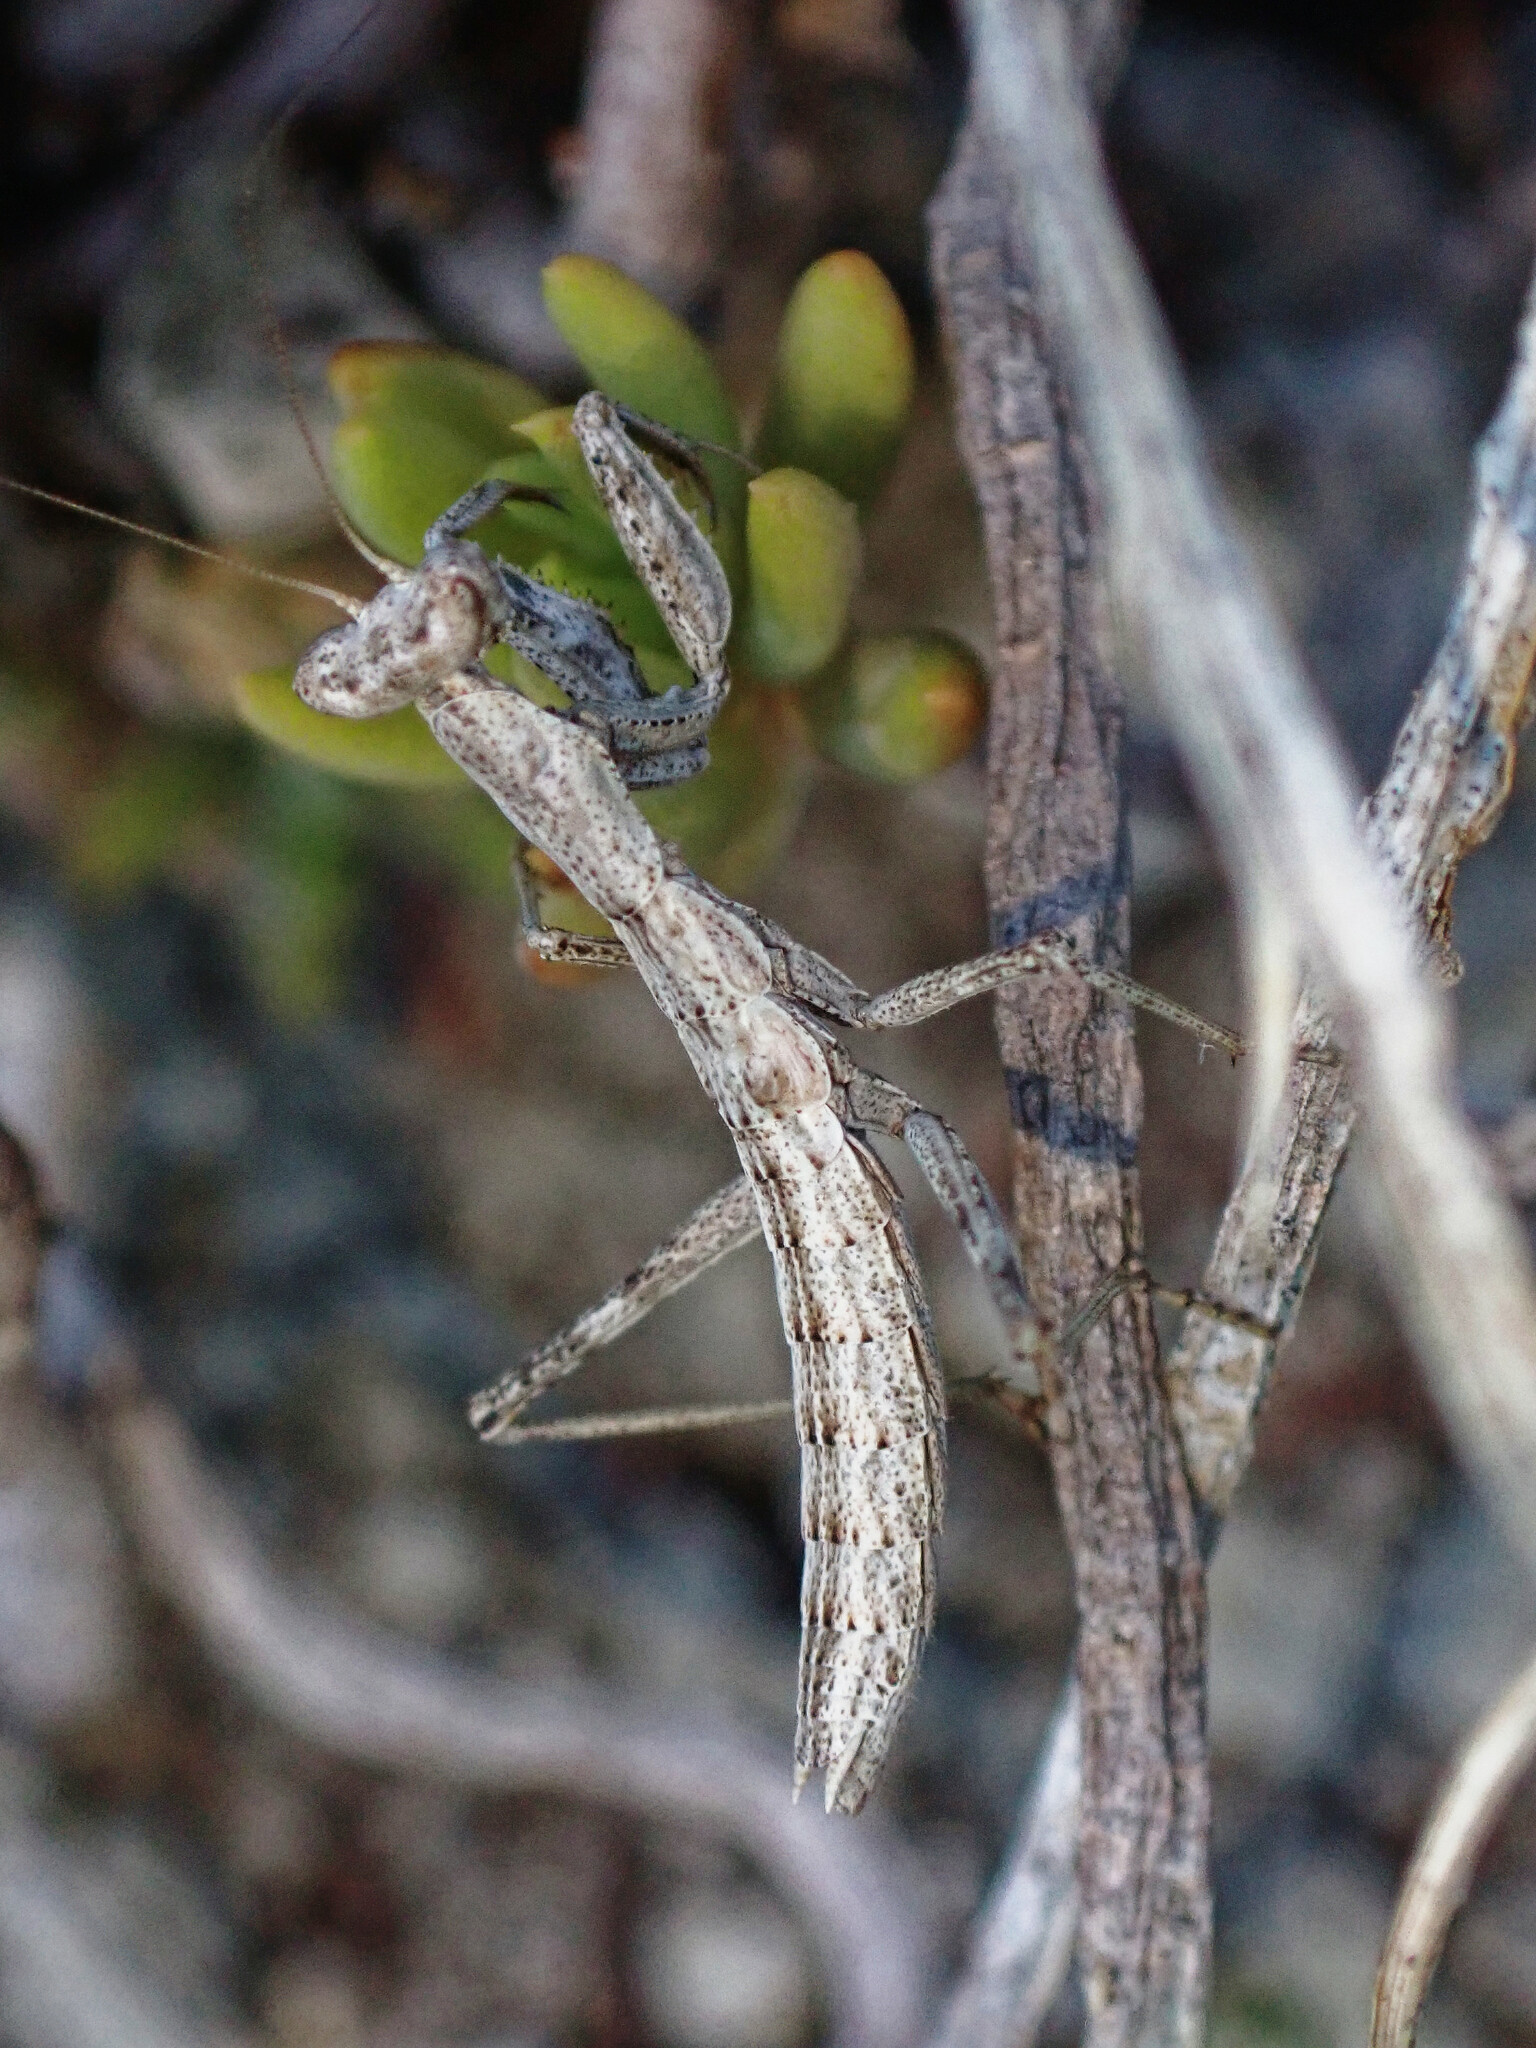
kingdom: Animalia
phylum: Arthropoda
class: Insecta
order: Mantodea
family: Amelidae
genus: Ameles
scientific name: Ameles decolor
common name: Dwarf mantis
